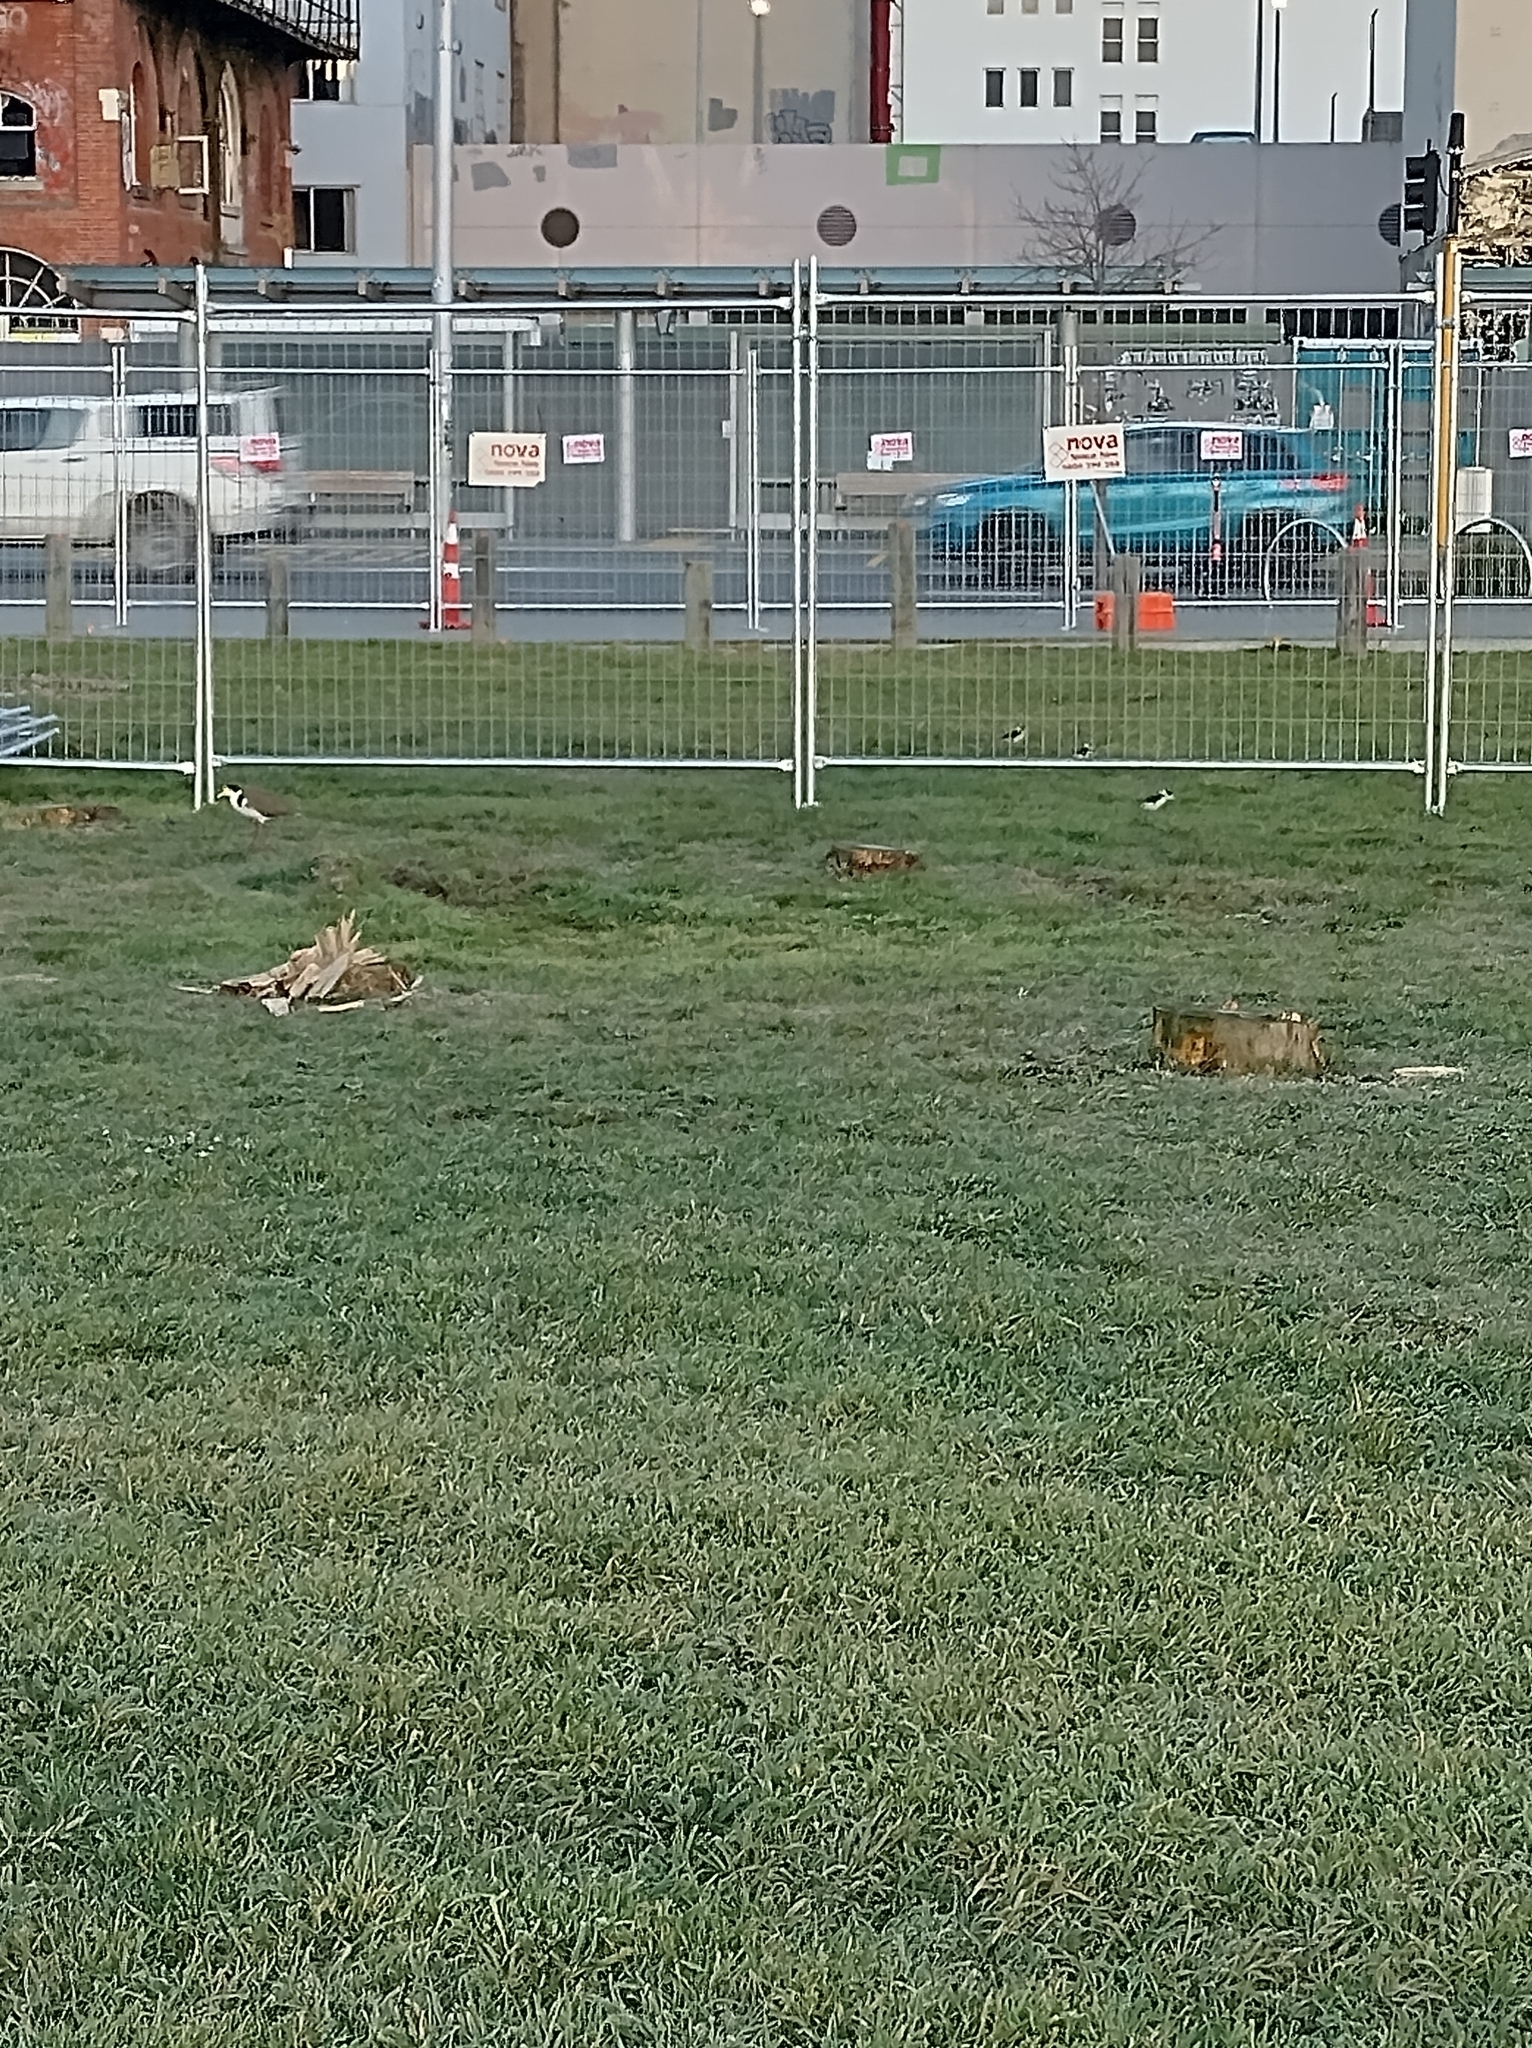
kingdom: Animalia
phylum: Chordata
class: Aves
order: Charadriiformes
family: Charadriidae
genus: Vanellus
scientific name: Vanellus miles
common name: Masked lapwing
